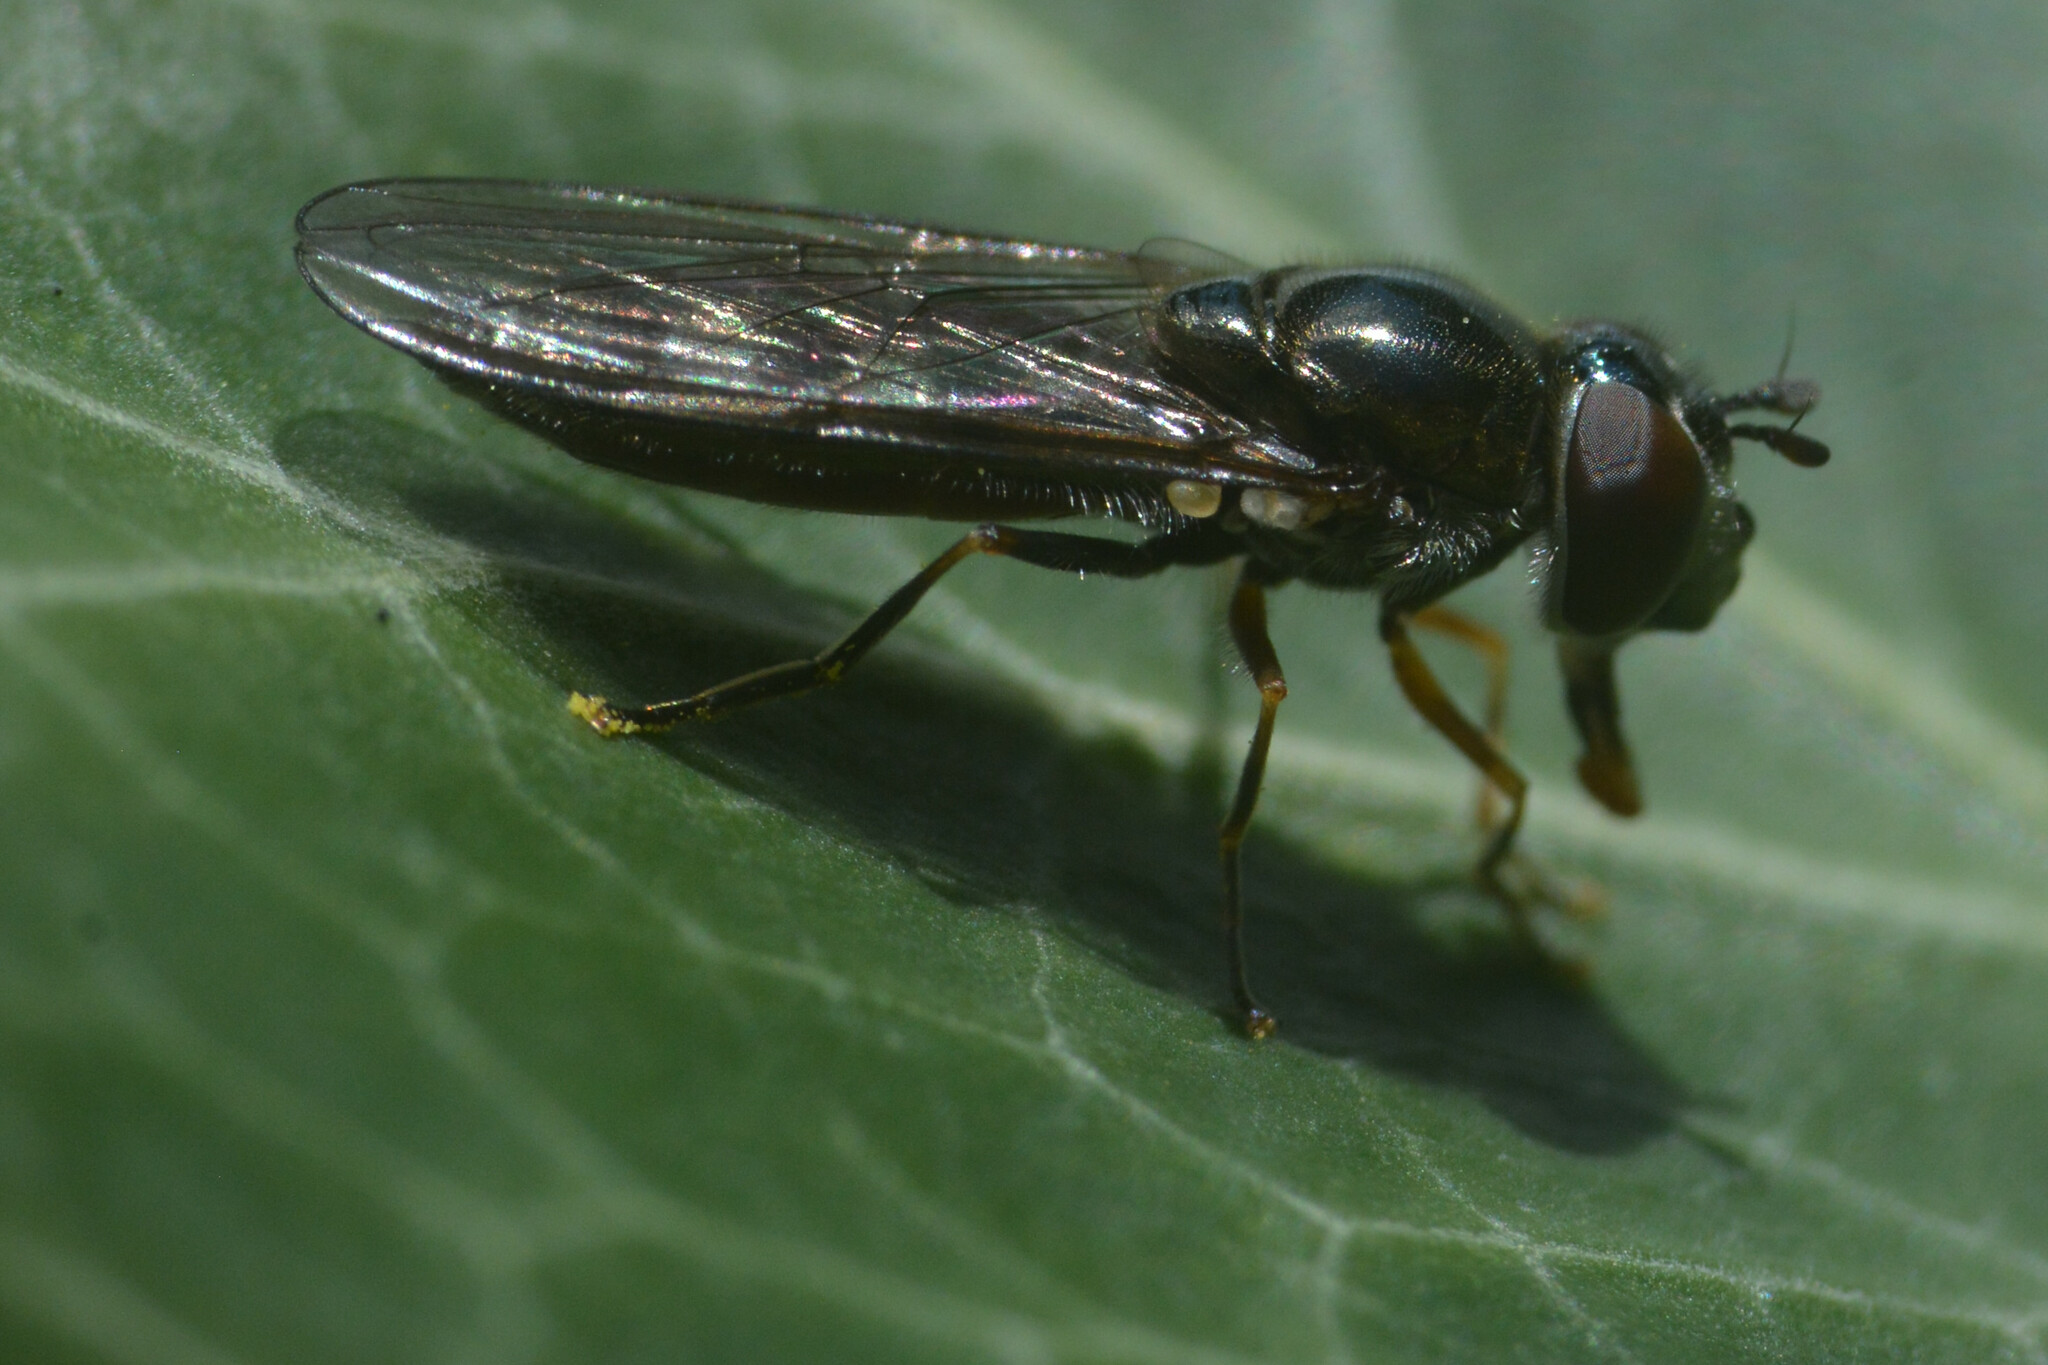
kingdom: Animalia
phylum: Arthropoda
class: Insecta
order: Diptera
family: Syrphidae
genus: Platycheirus
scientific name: Platycheirus albimanus
